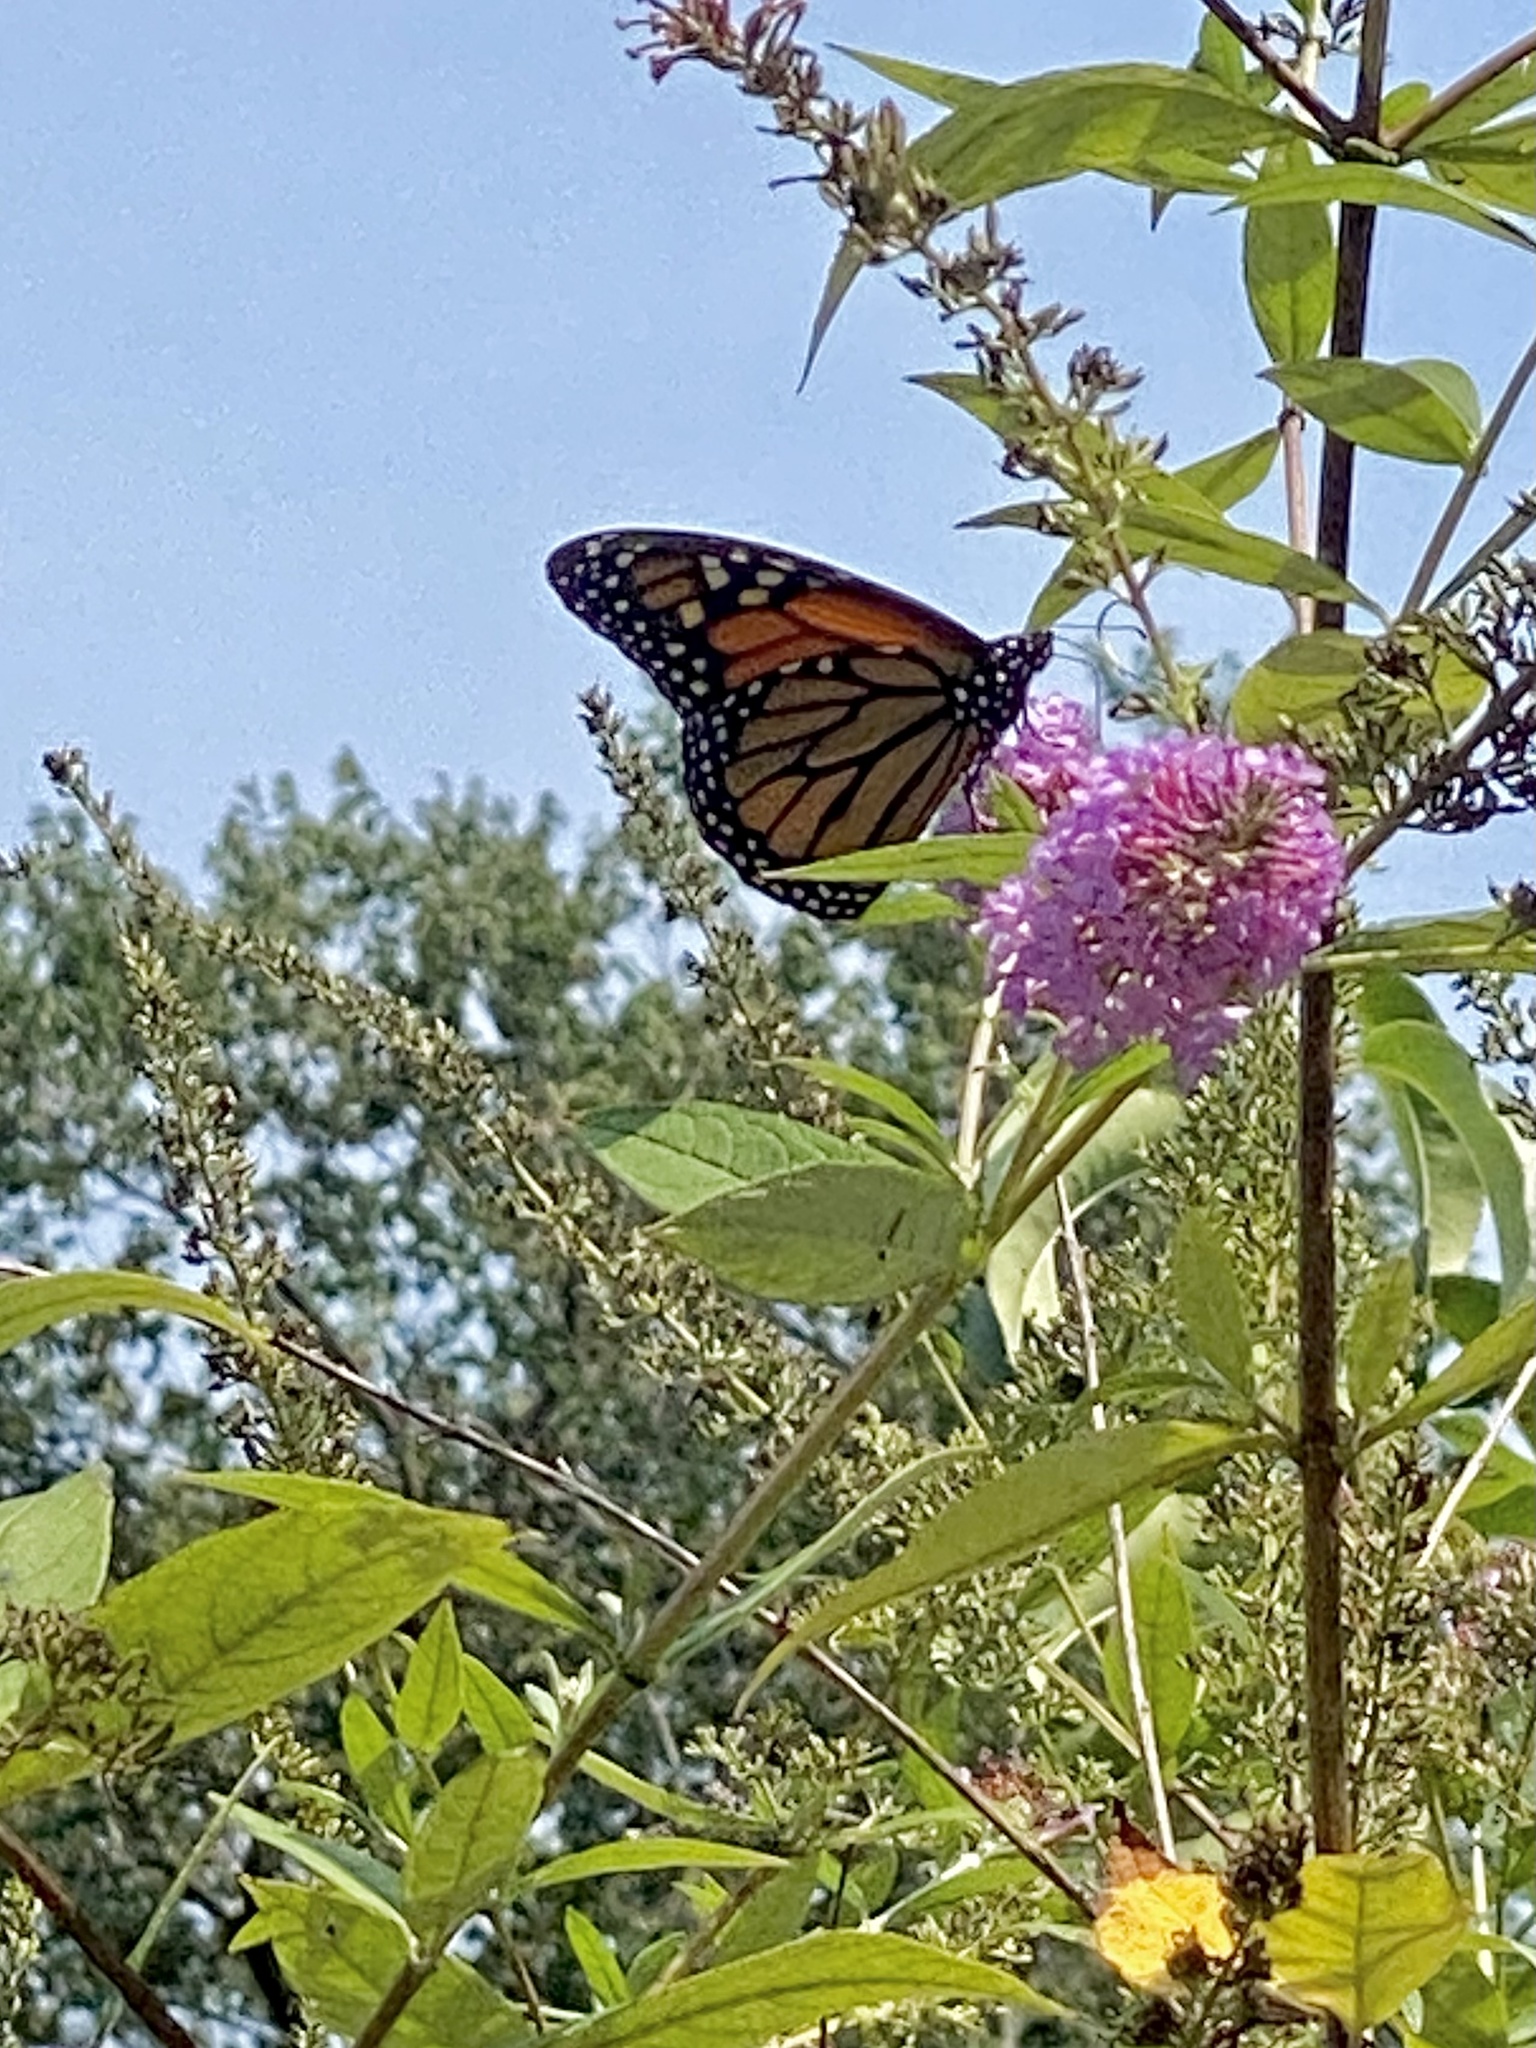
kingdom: Animalia
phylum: Arthropoda
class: Insecta
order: Lepidoptera
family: Nymphalidae
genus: Danaus
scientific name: Danaus plexippus
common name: Monarch
